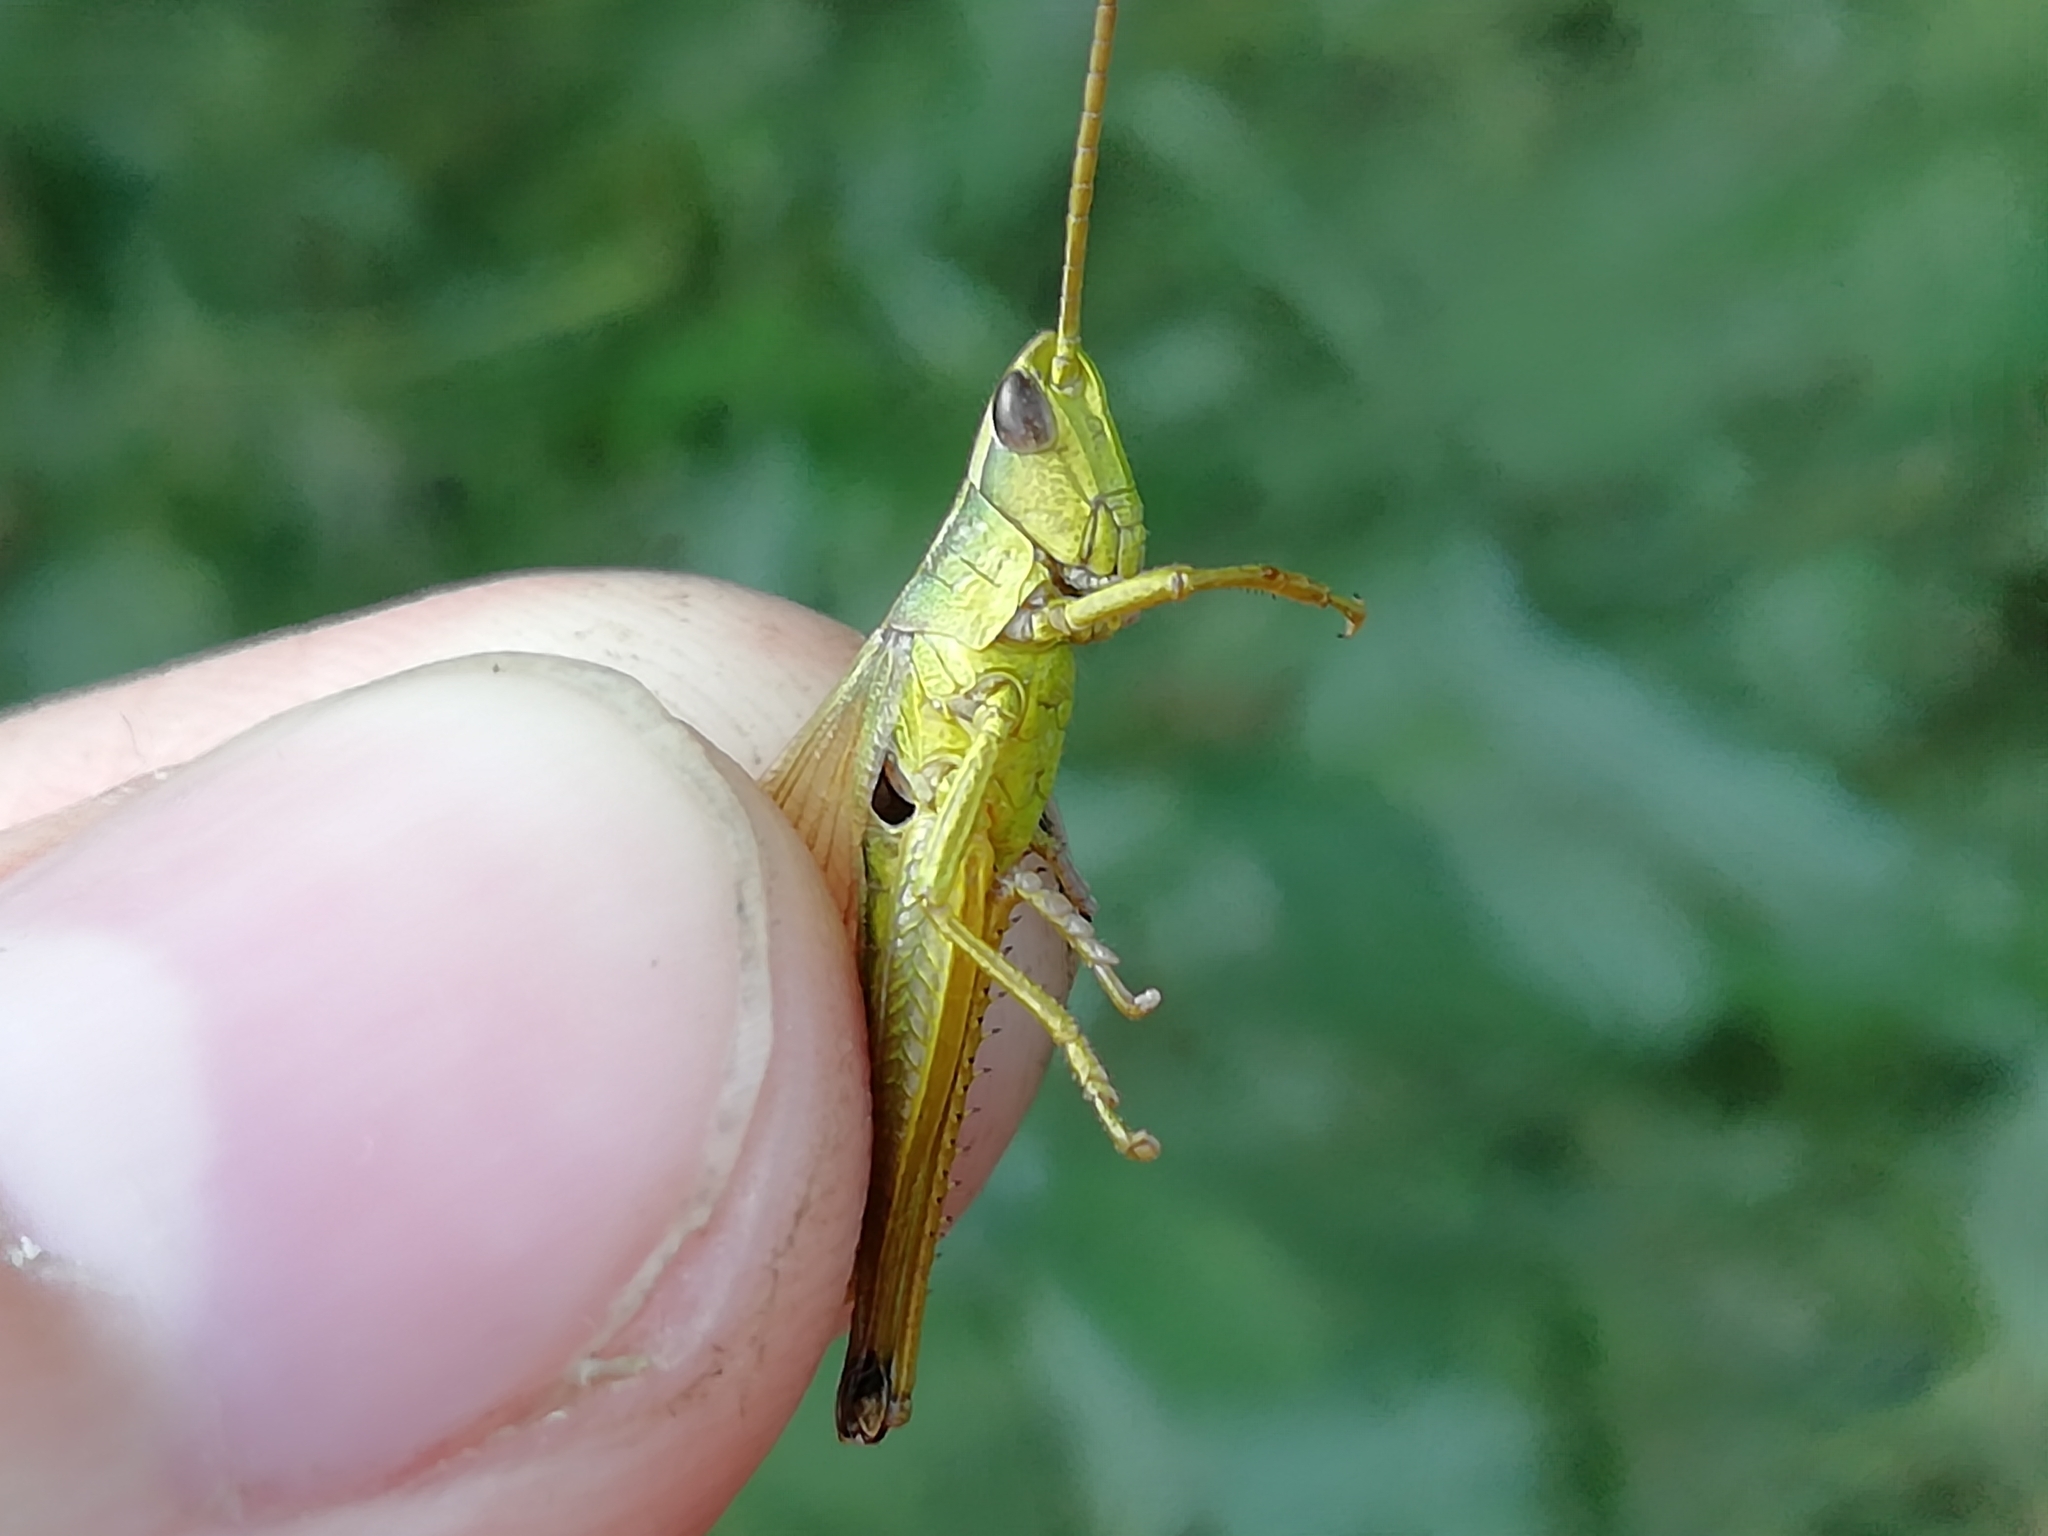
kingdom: Animalia
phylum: Arthropoda
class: Insecta
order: Orthoptera
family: Acrididae
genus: Chrysochraon
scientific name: Chrysochraon dispar
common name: Large gold grasshopper
